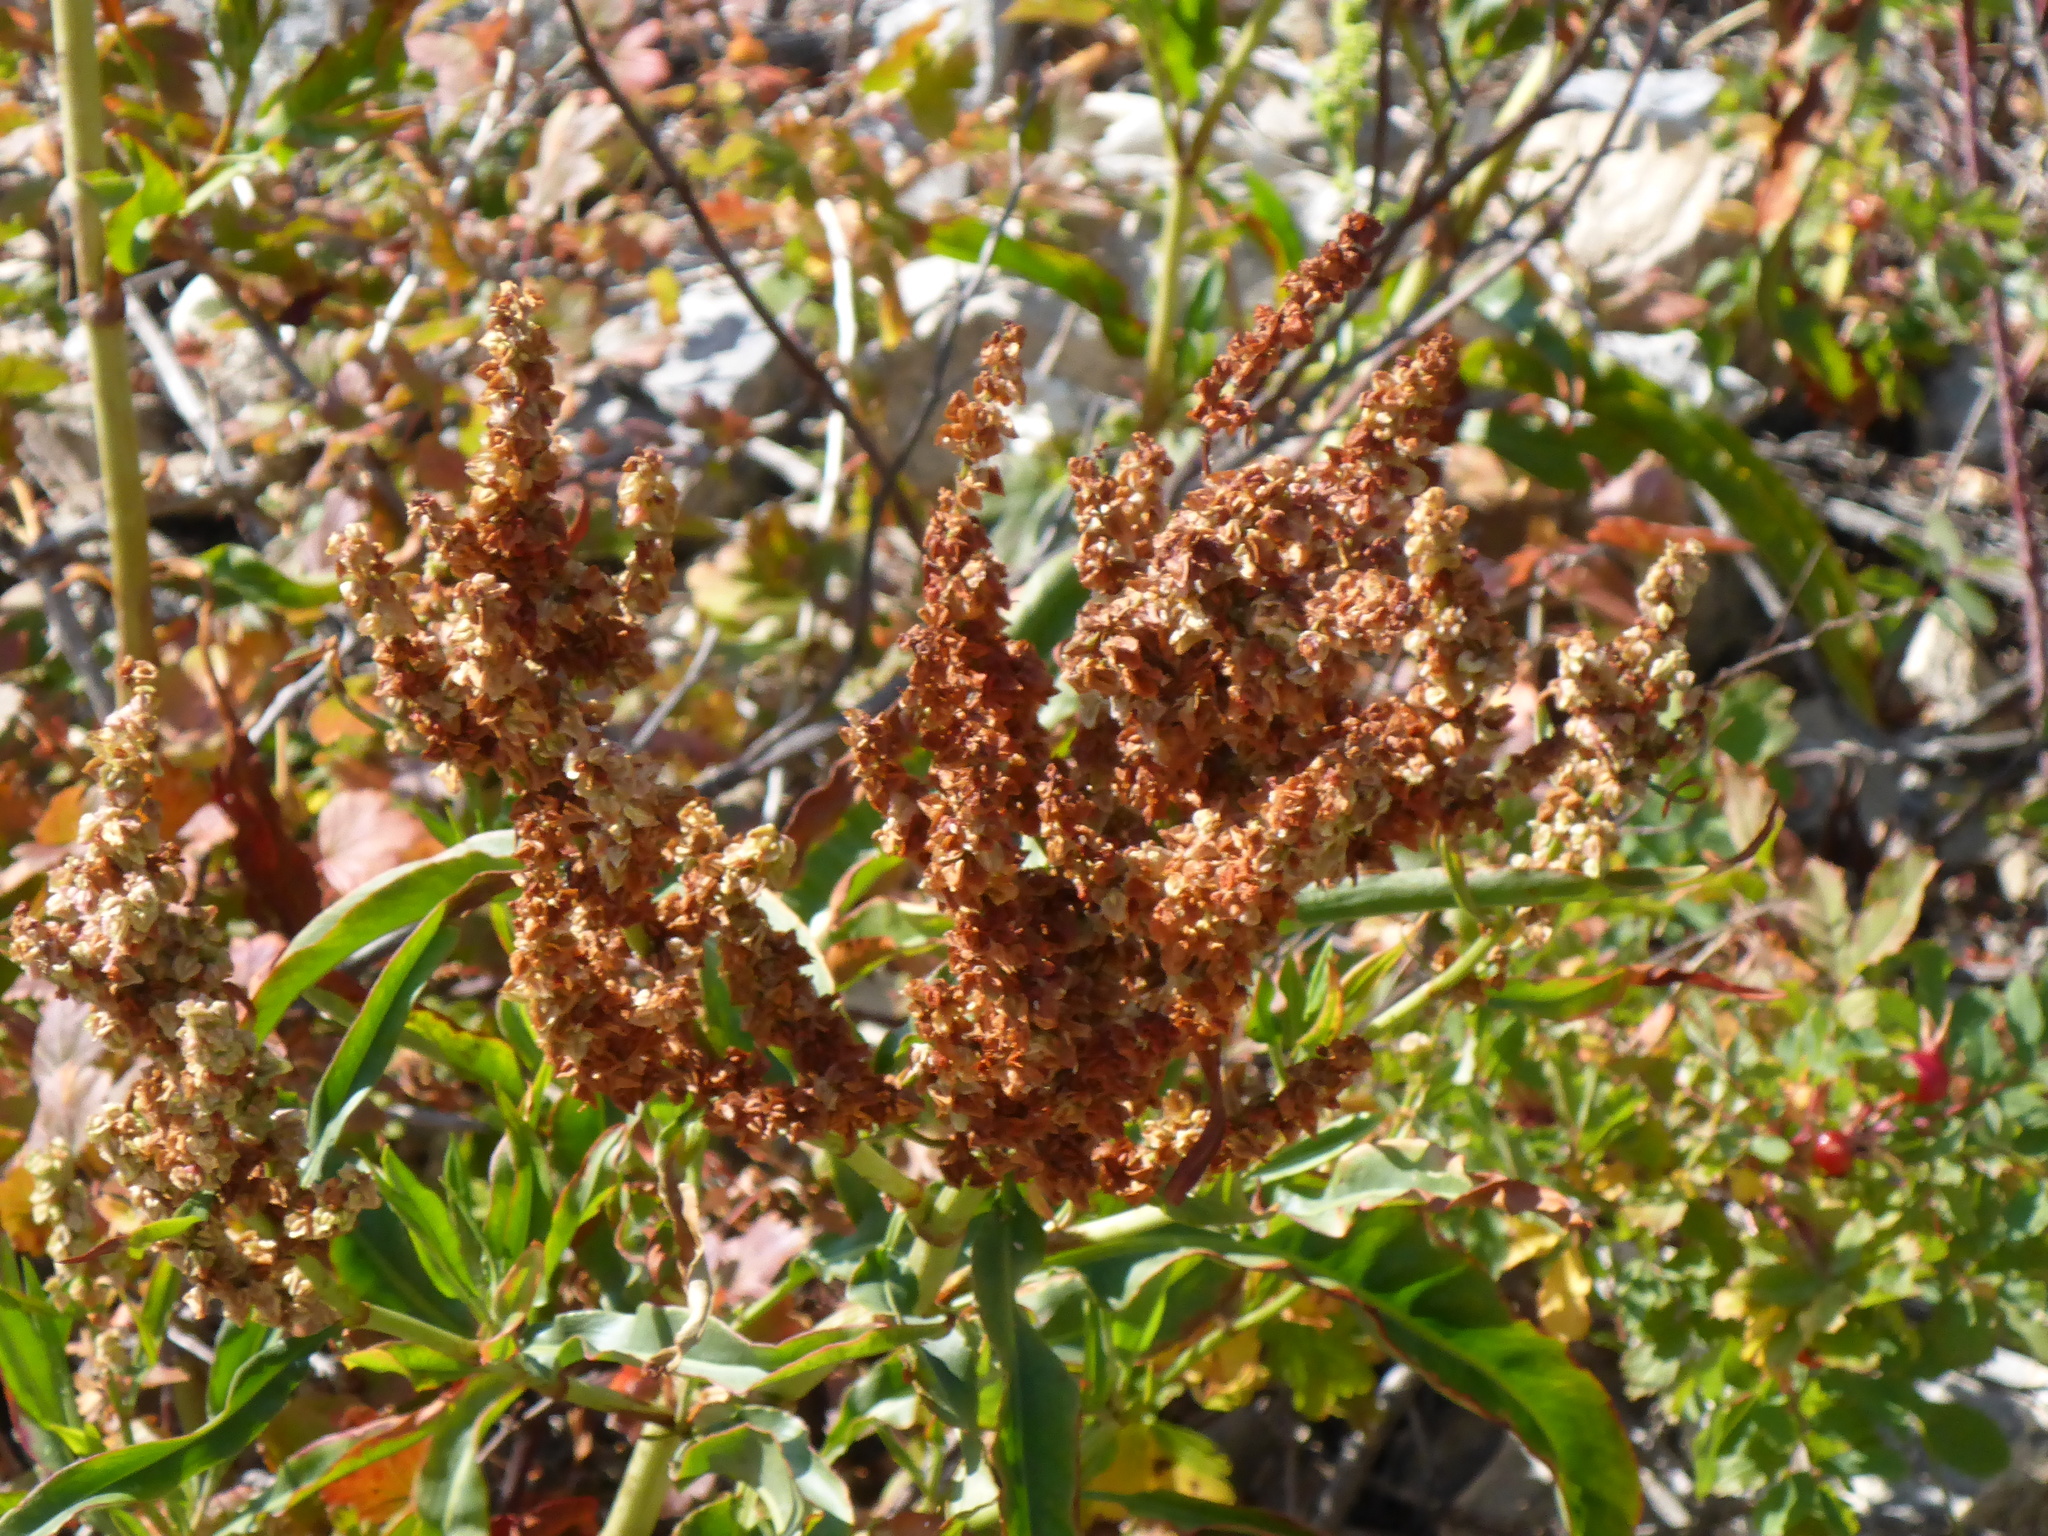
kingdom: Plantae
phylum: Tracheophyta
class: Magnoliopsida
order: Caryophyllales
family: Polygonaceae
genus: Rumex
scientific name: Rumex triangulivalvis
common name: Triangular-valve dock
